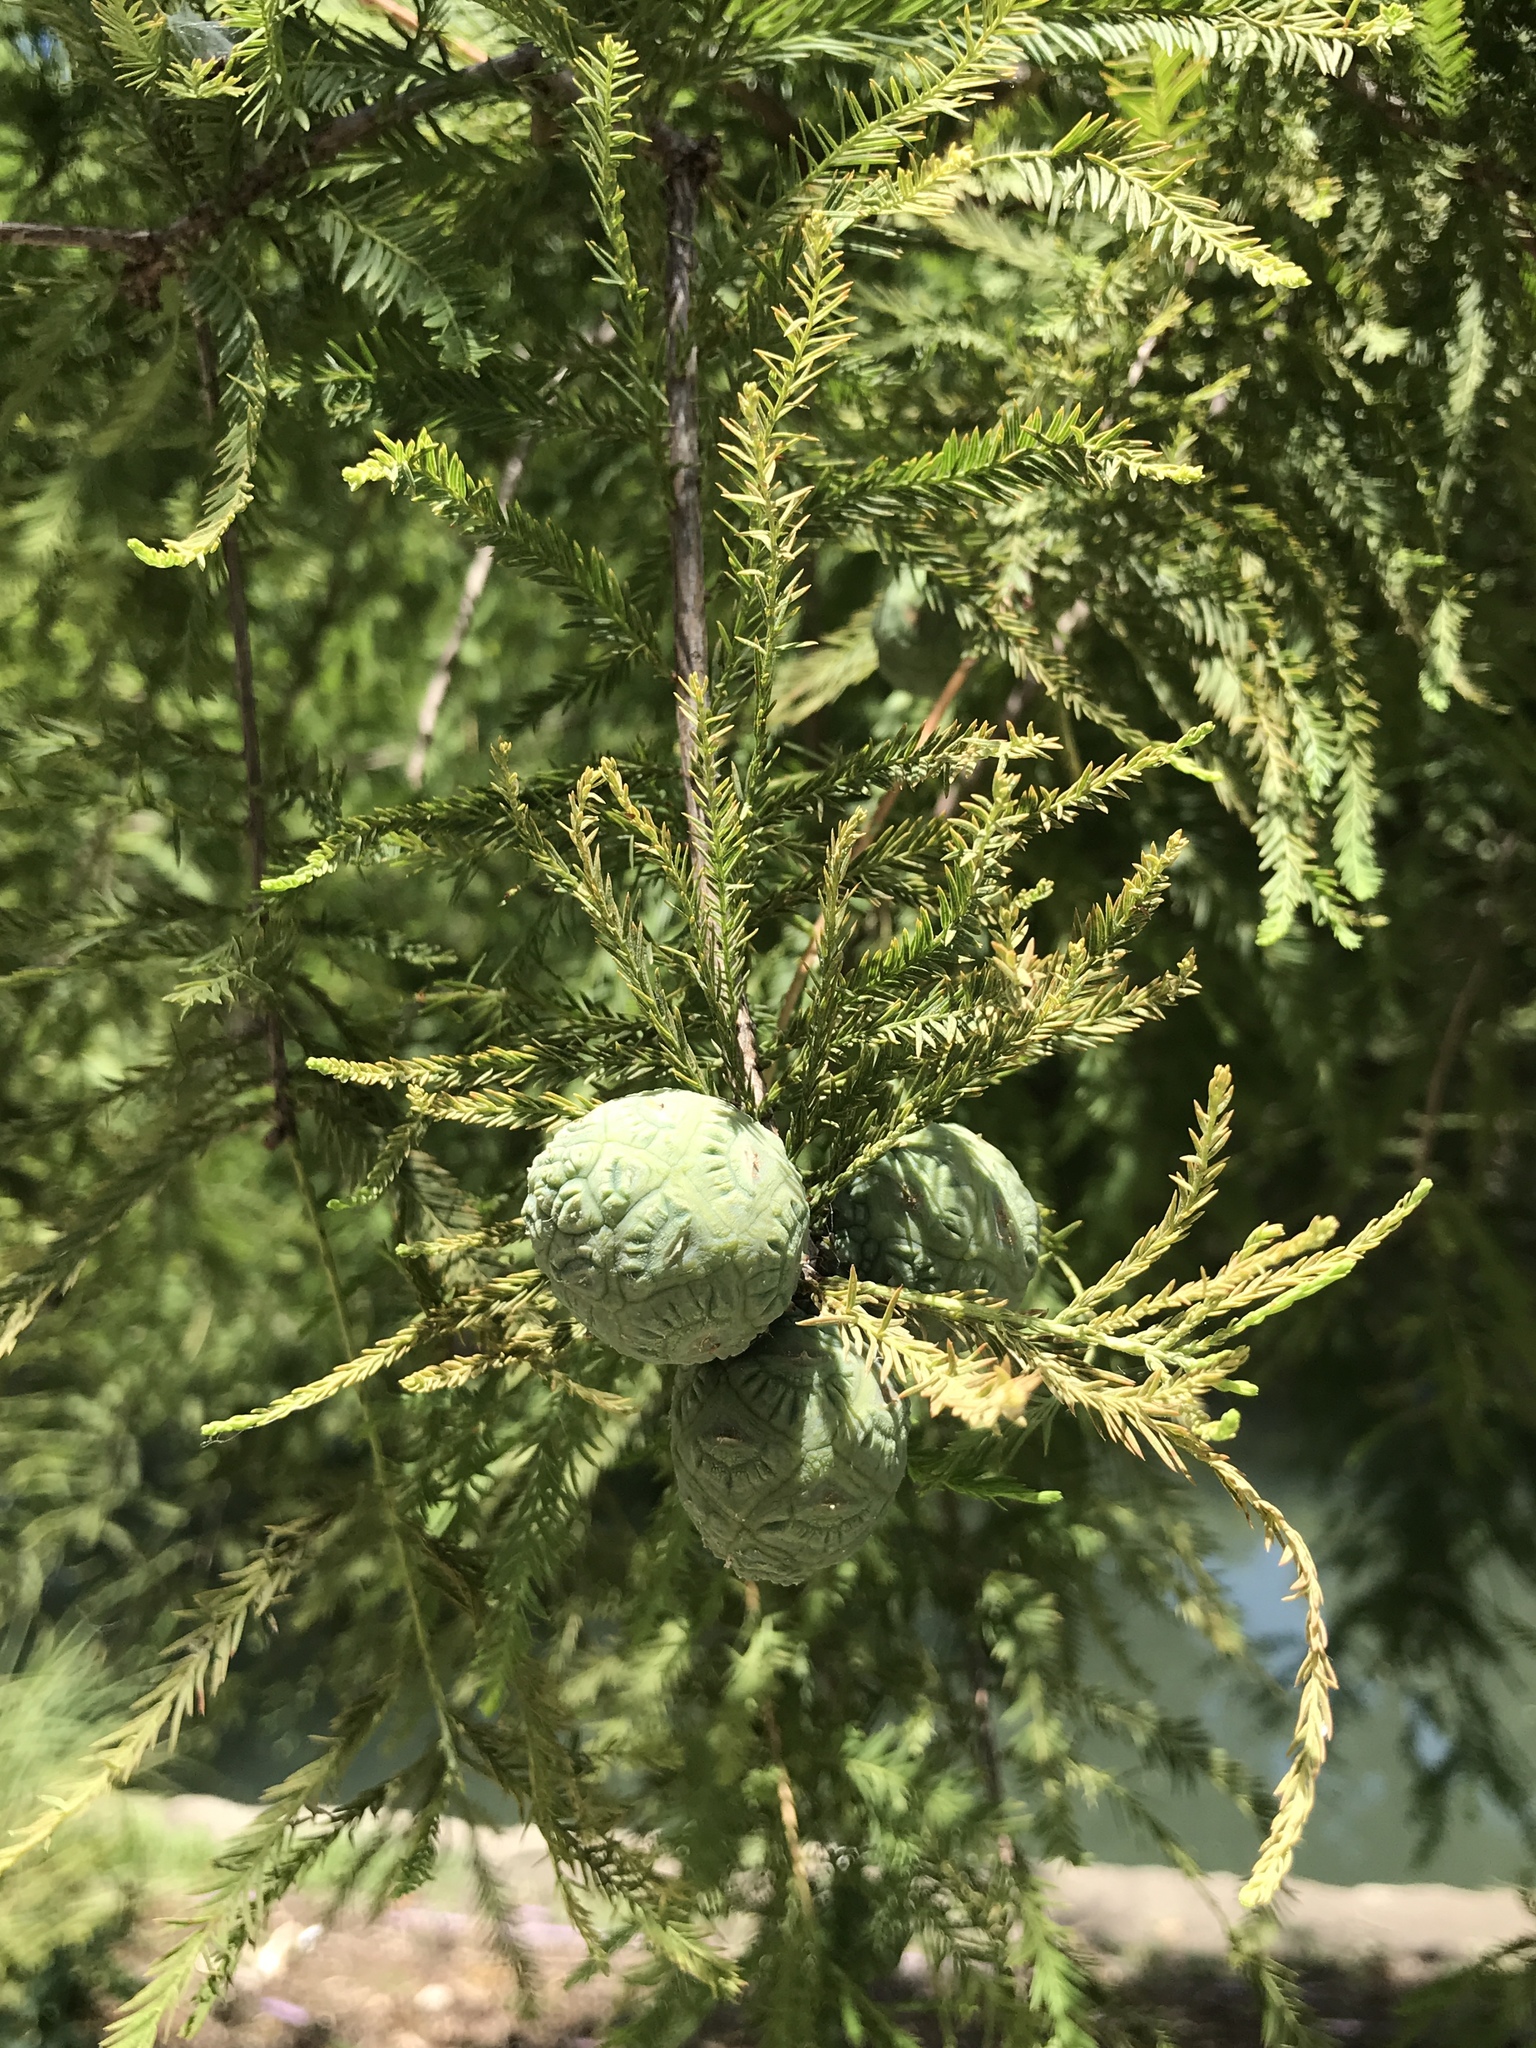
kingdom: Plantae
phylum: Tracheophyta
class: Pinopsida
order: Pinales
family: Cupressaceae
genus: Taxodium
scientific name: Taxodium distichum
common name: Bald cypress
